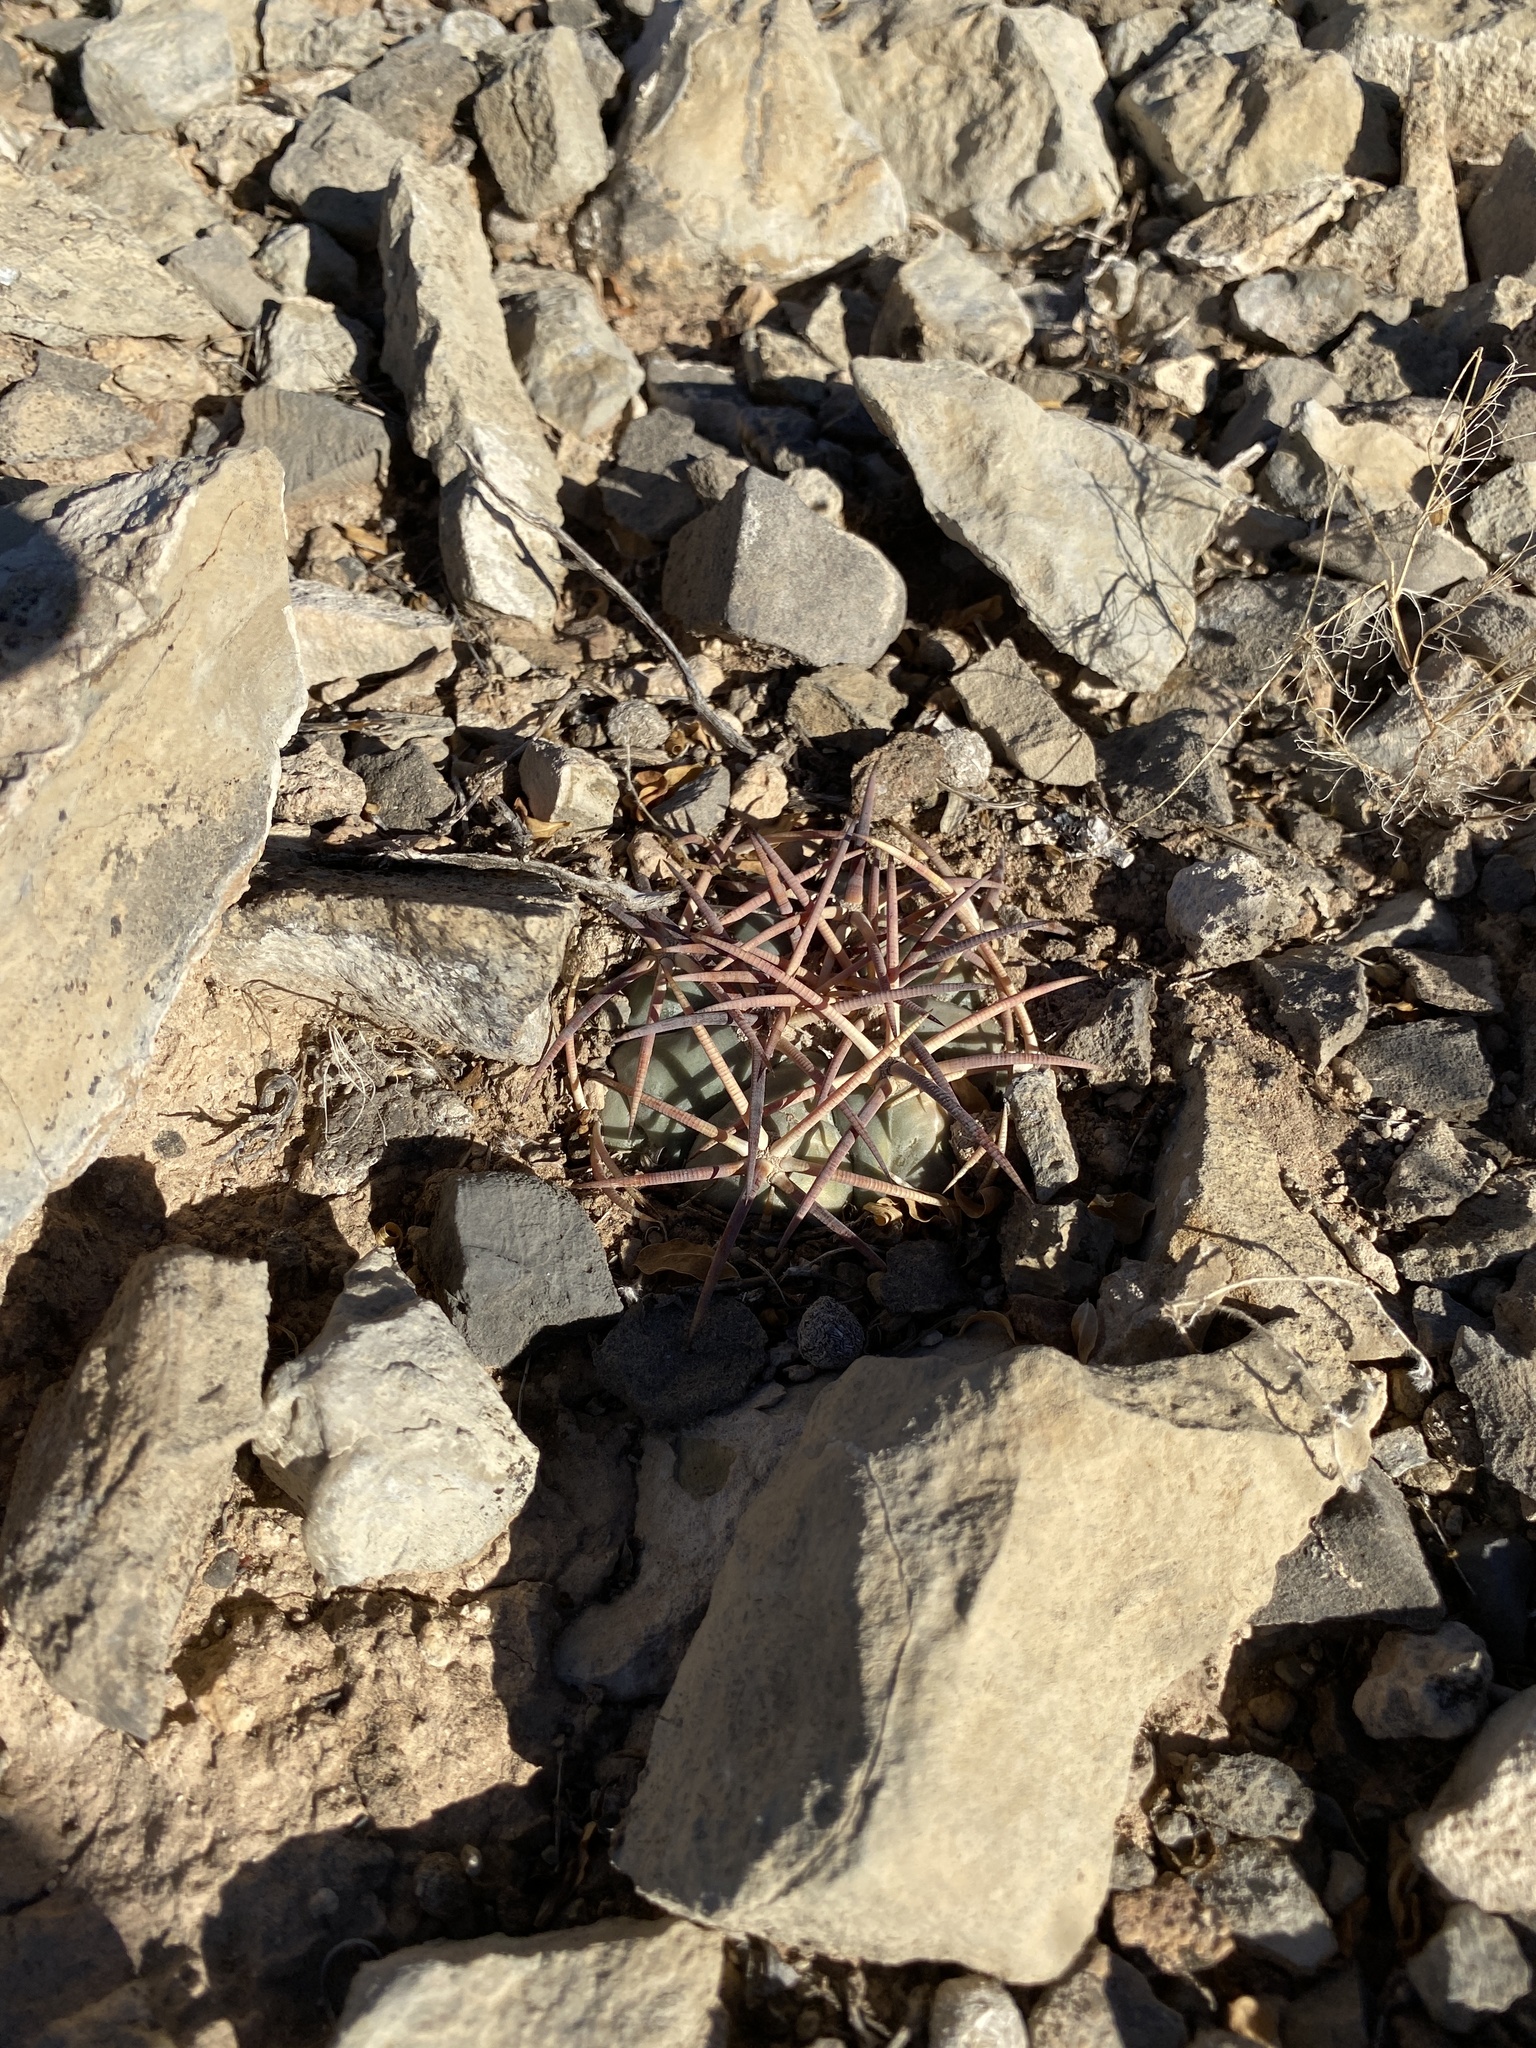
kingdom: Plantae
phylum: Tracheophyta
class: Magnoliopsida
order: Caryophyllales
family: Cactaceae
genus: Echinocactus
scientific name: Echinocactus horizonthalonius
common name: Devilshead
